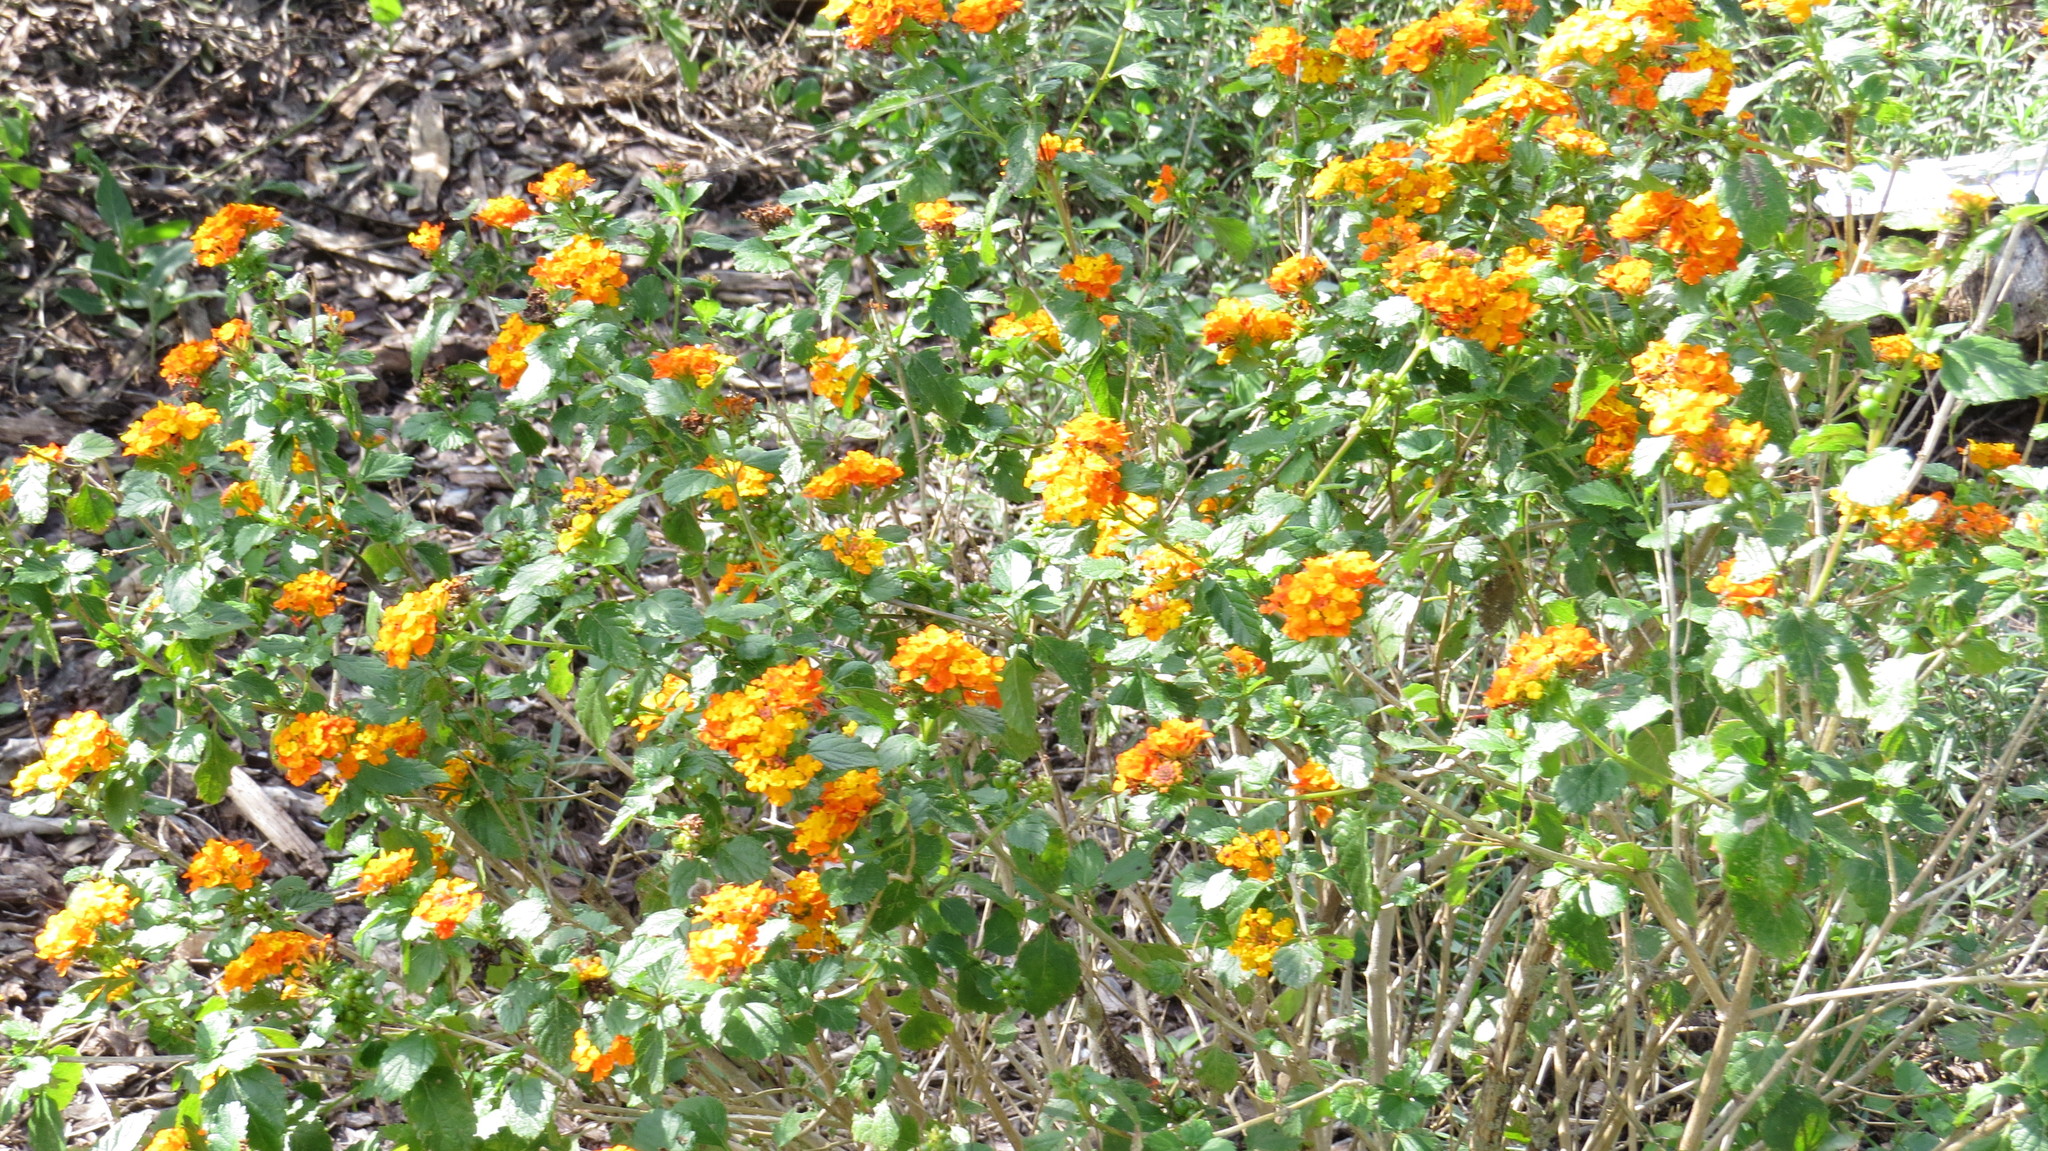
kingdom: Plantae
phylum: Tracheophyta
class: Magnoliopsida
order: Lamiales
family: Verbenaceae
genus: Lantana
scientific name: Lantana urticoides
